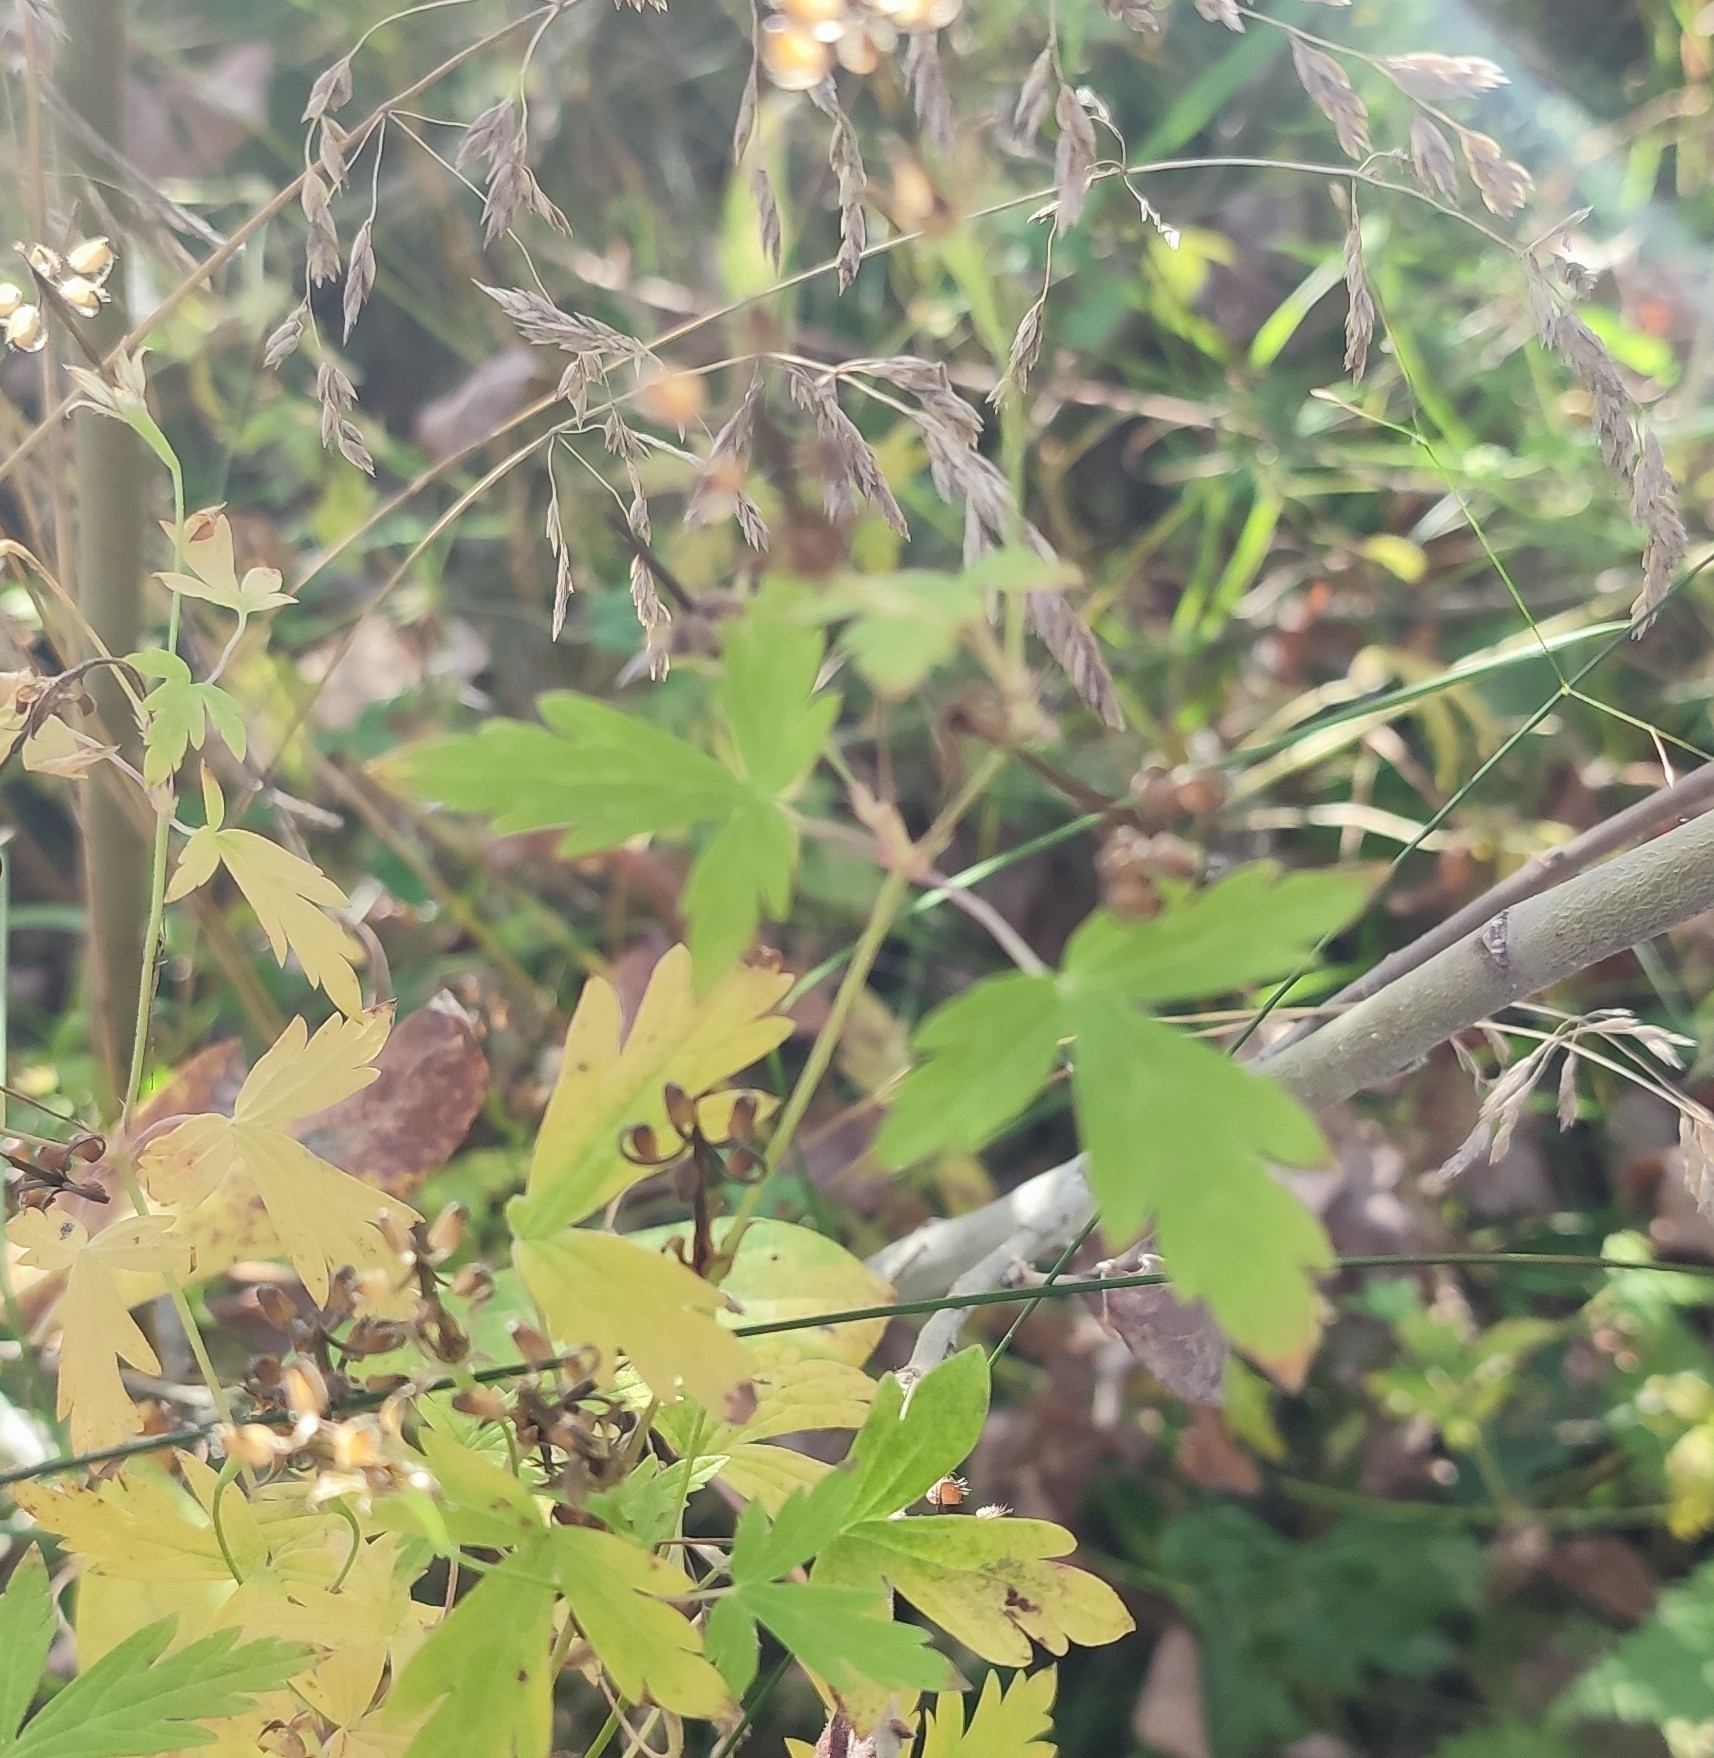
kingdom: Plantae
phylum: Tracheophyta
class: Magnoliopsida
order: Geraniales
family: Geraniaceae
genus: Geranium
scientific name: Geranium sibiricum
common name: Siberian crane's-bill
